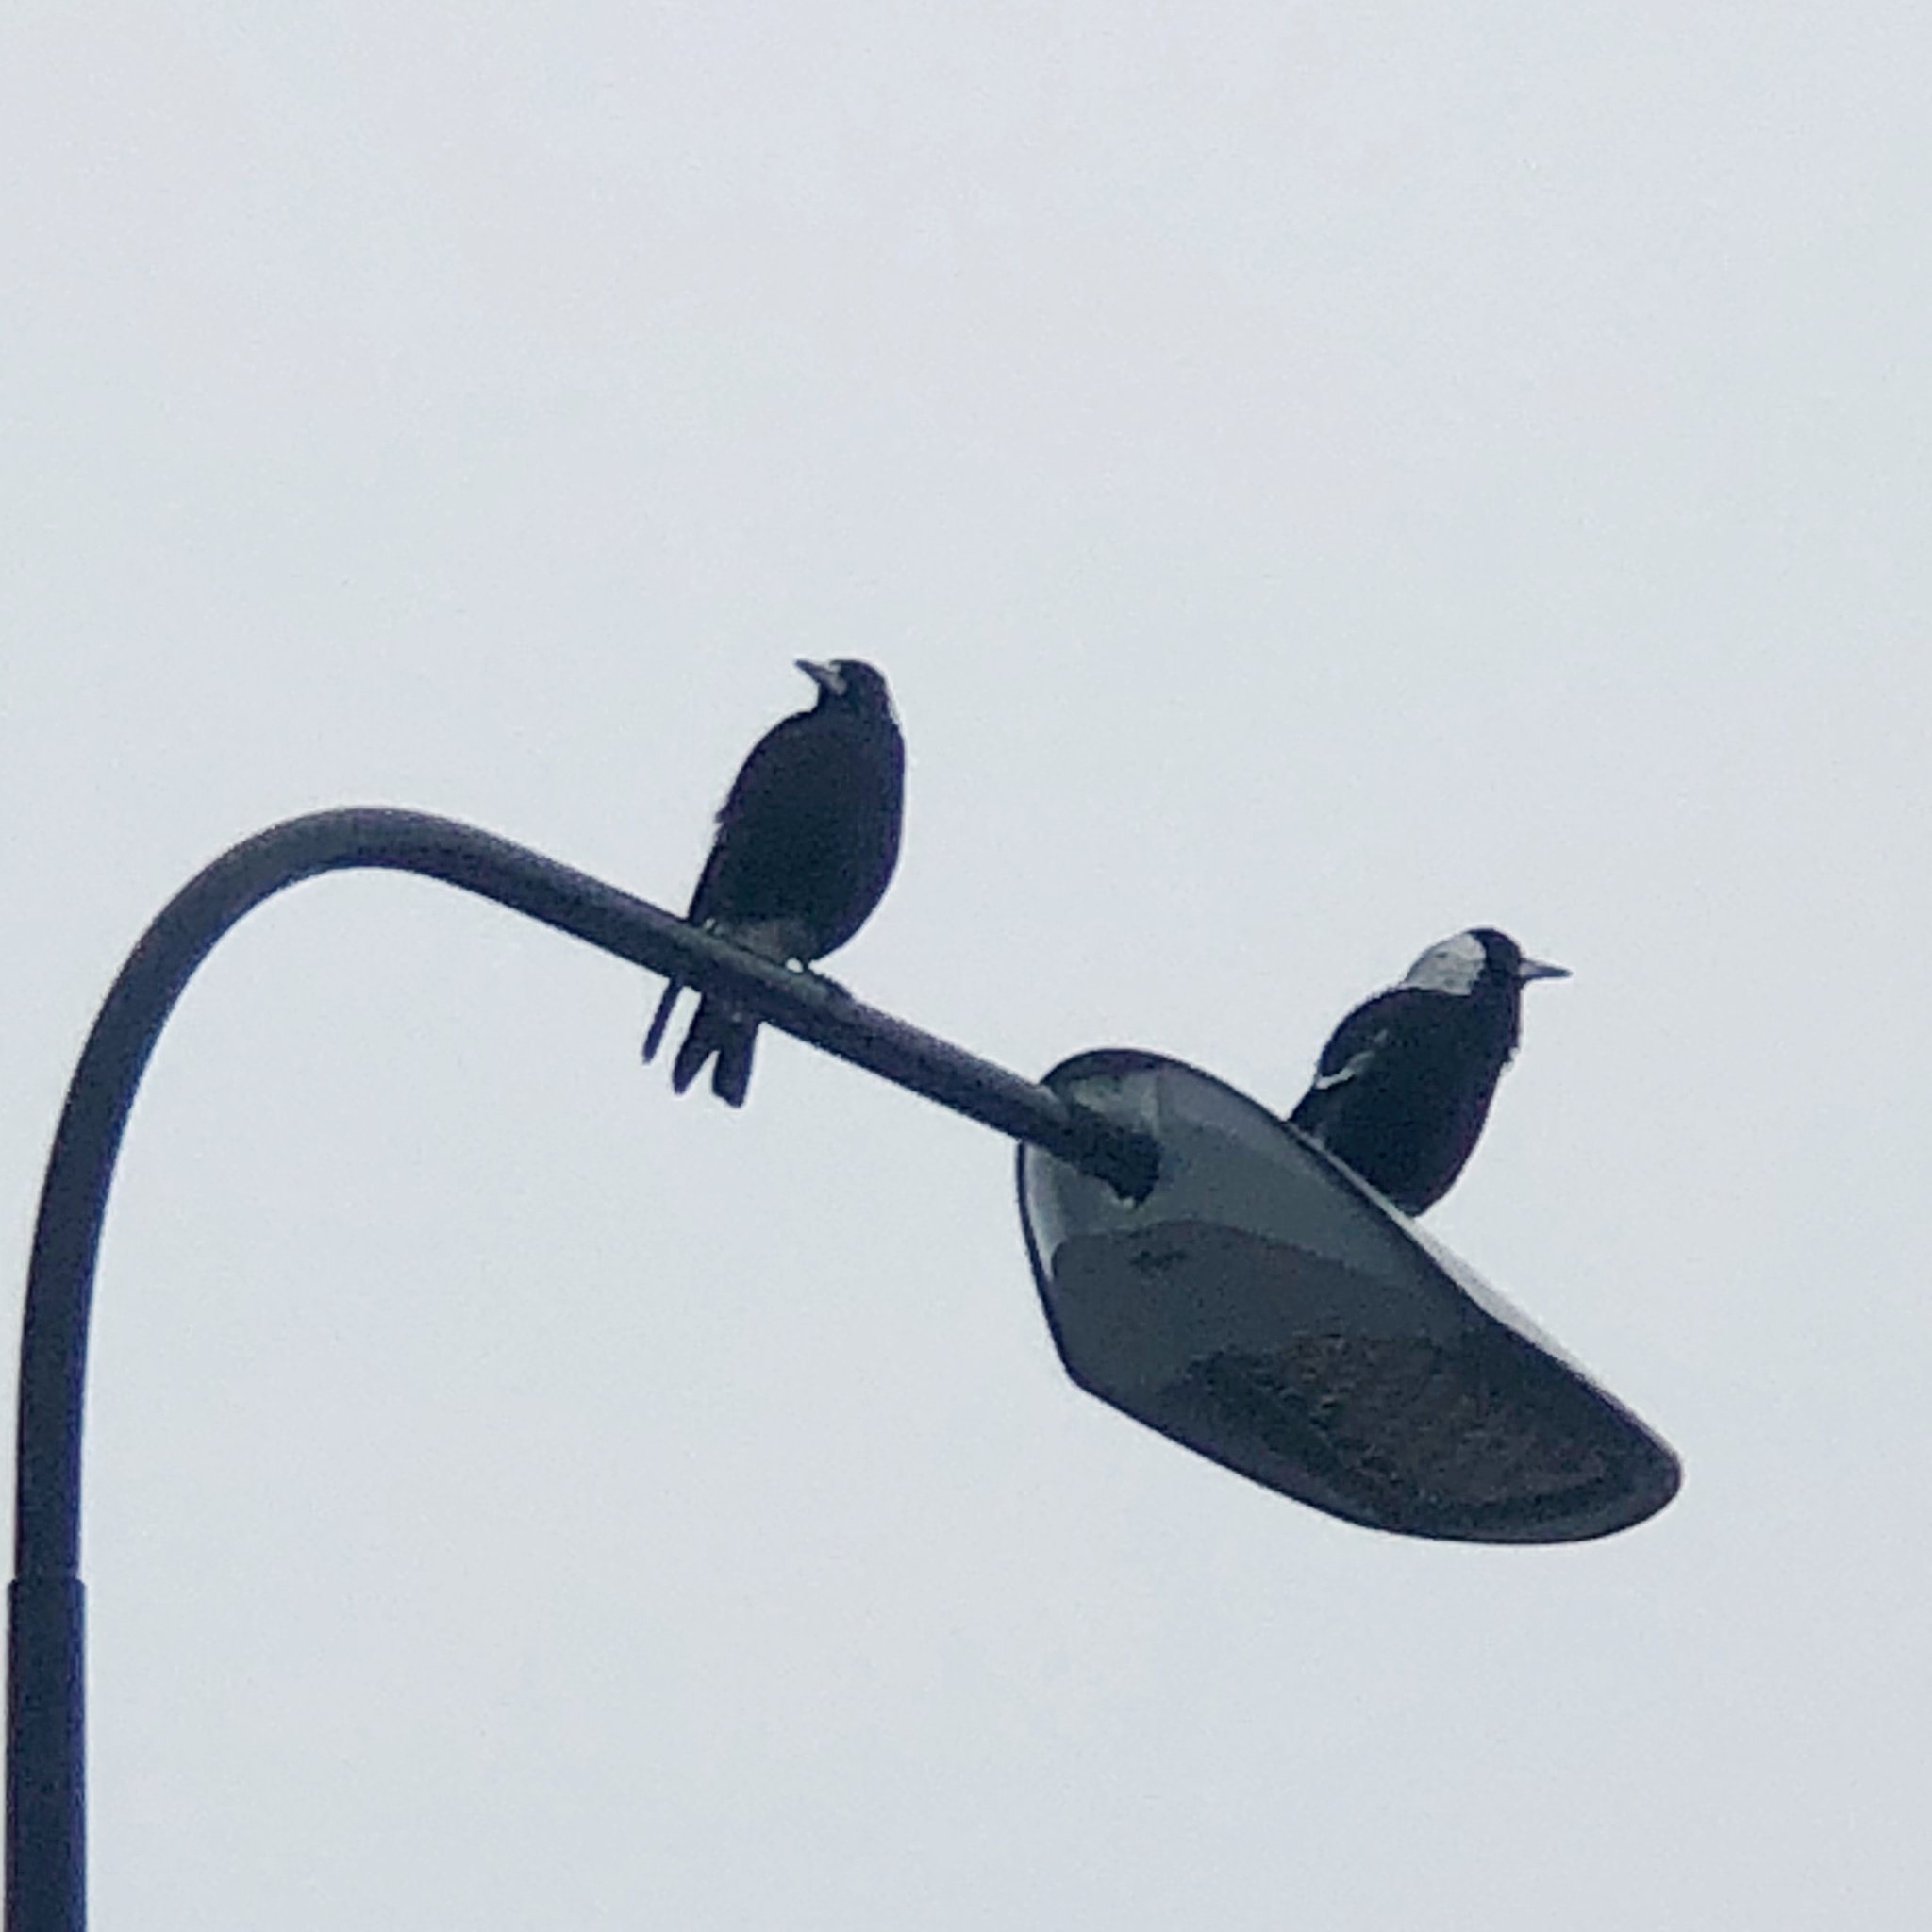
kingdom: Animalia
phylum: Chordata
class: Aves
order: Passeriformes
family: Cracticidae
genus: Gymnorhina
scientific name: Gymnorhina tibicen
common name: Australian magpie
